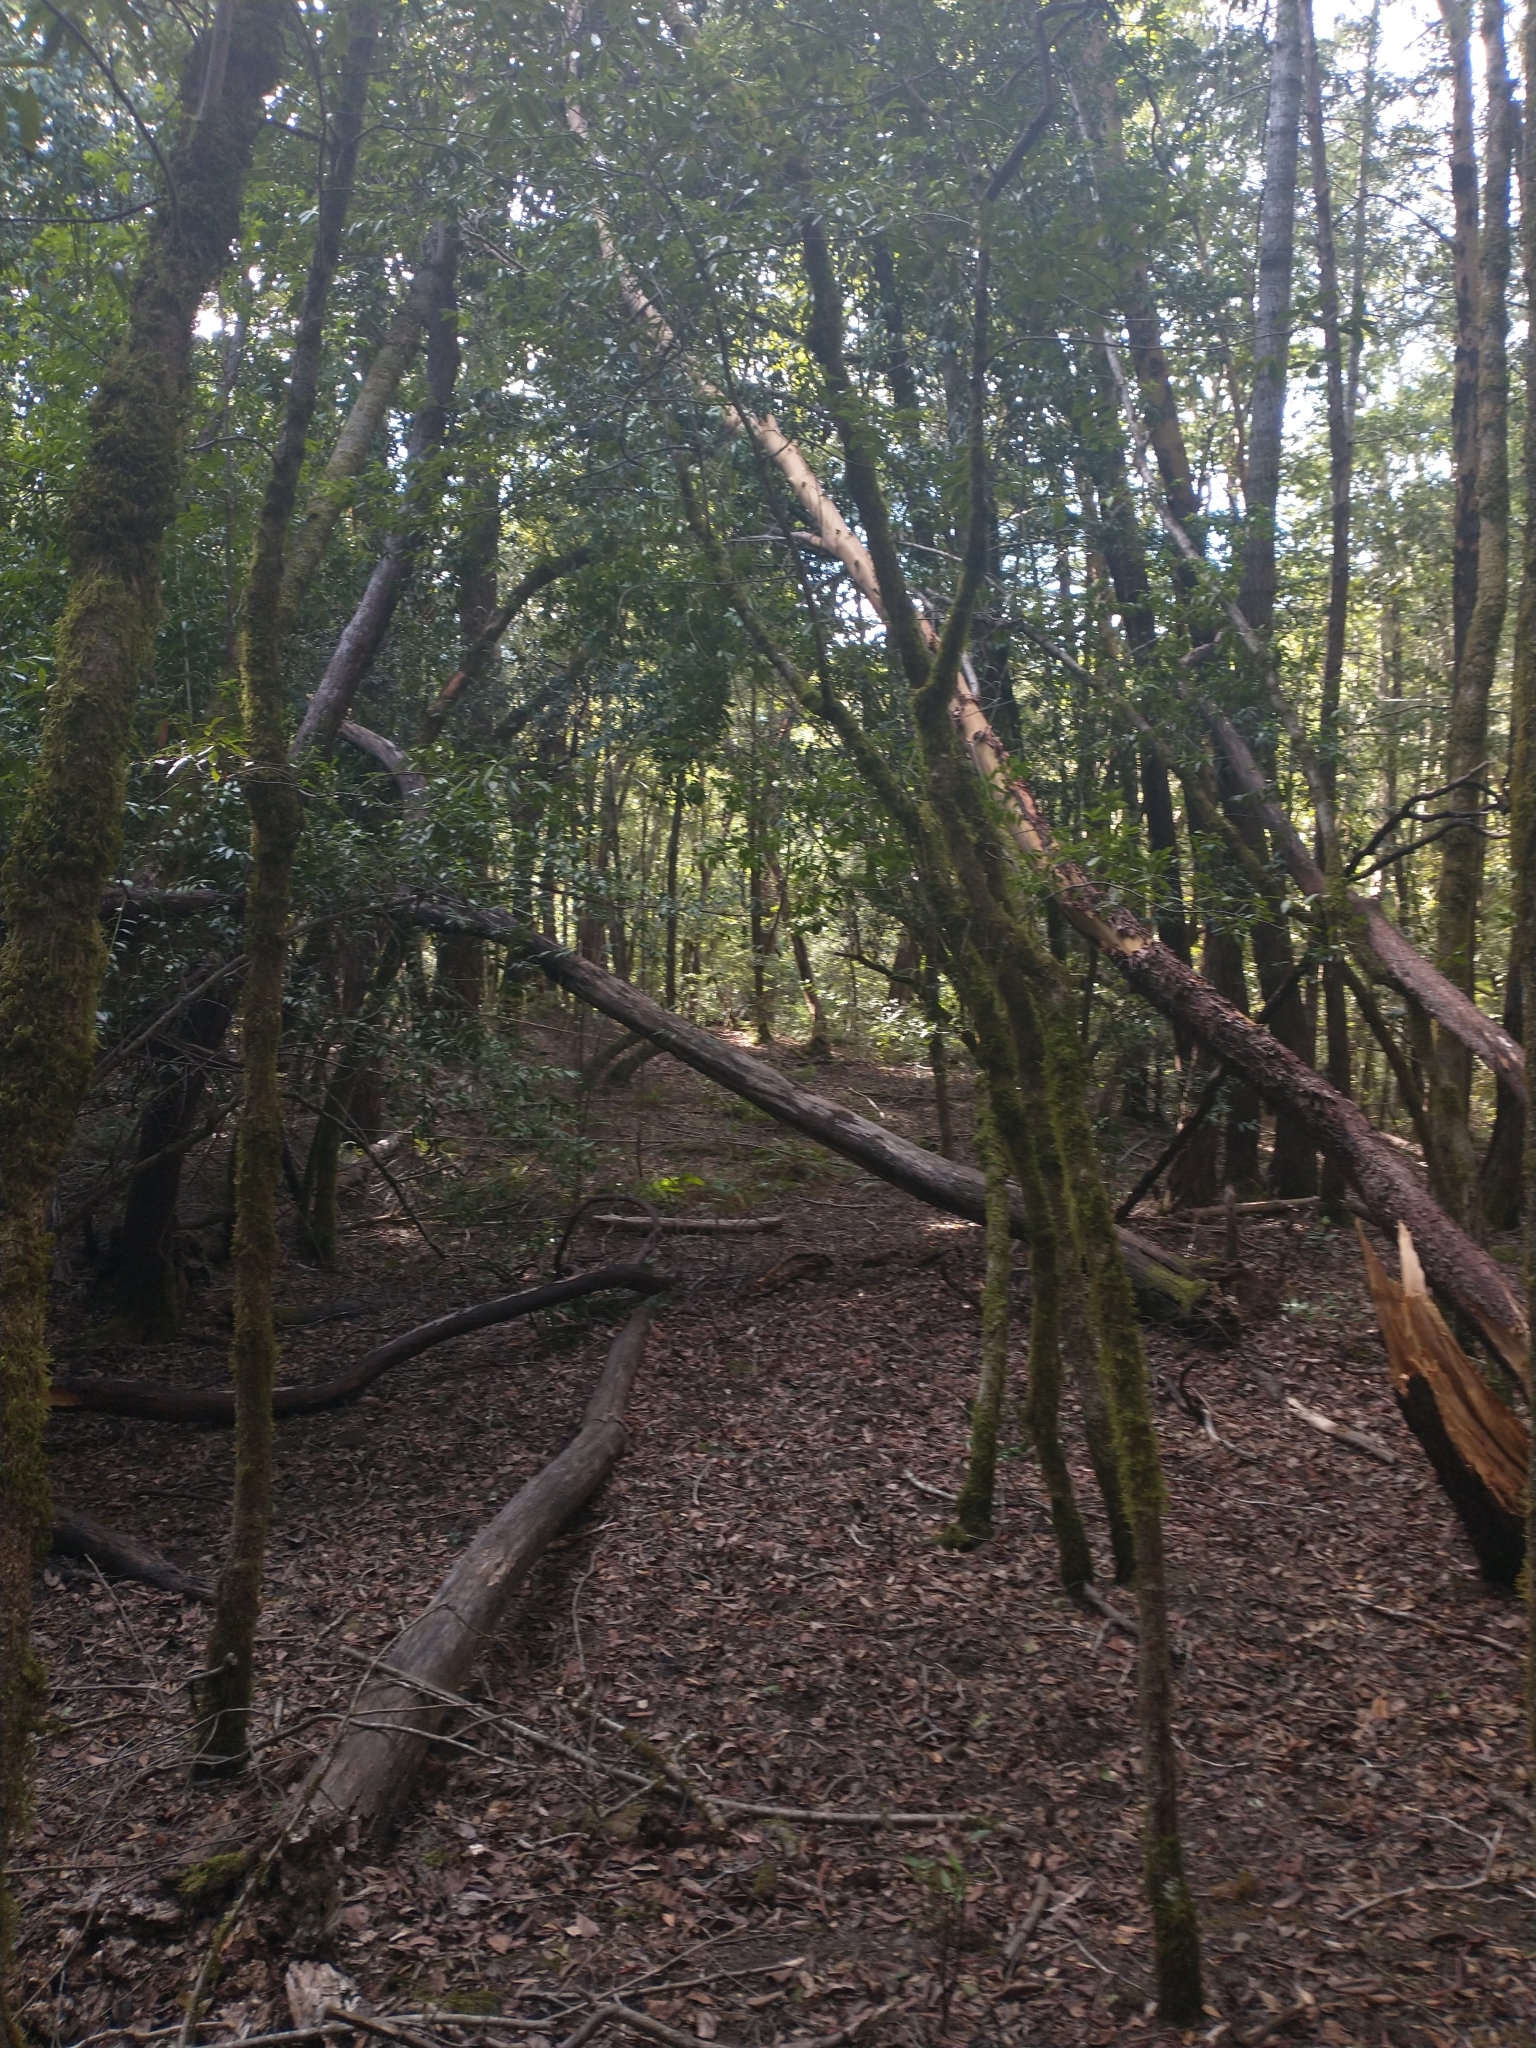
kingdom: Plantae
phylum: Tracheophyta
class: Magnoliopsida
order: Ericales
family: Ericaceae
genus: Arbutus
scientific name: Arbutus menziesii
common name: Pacific madrone
